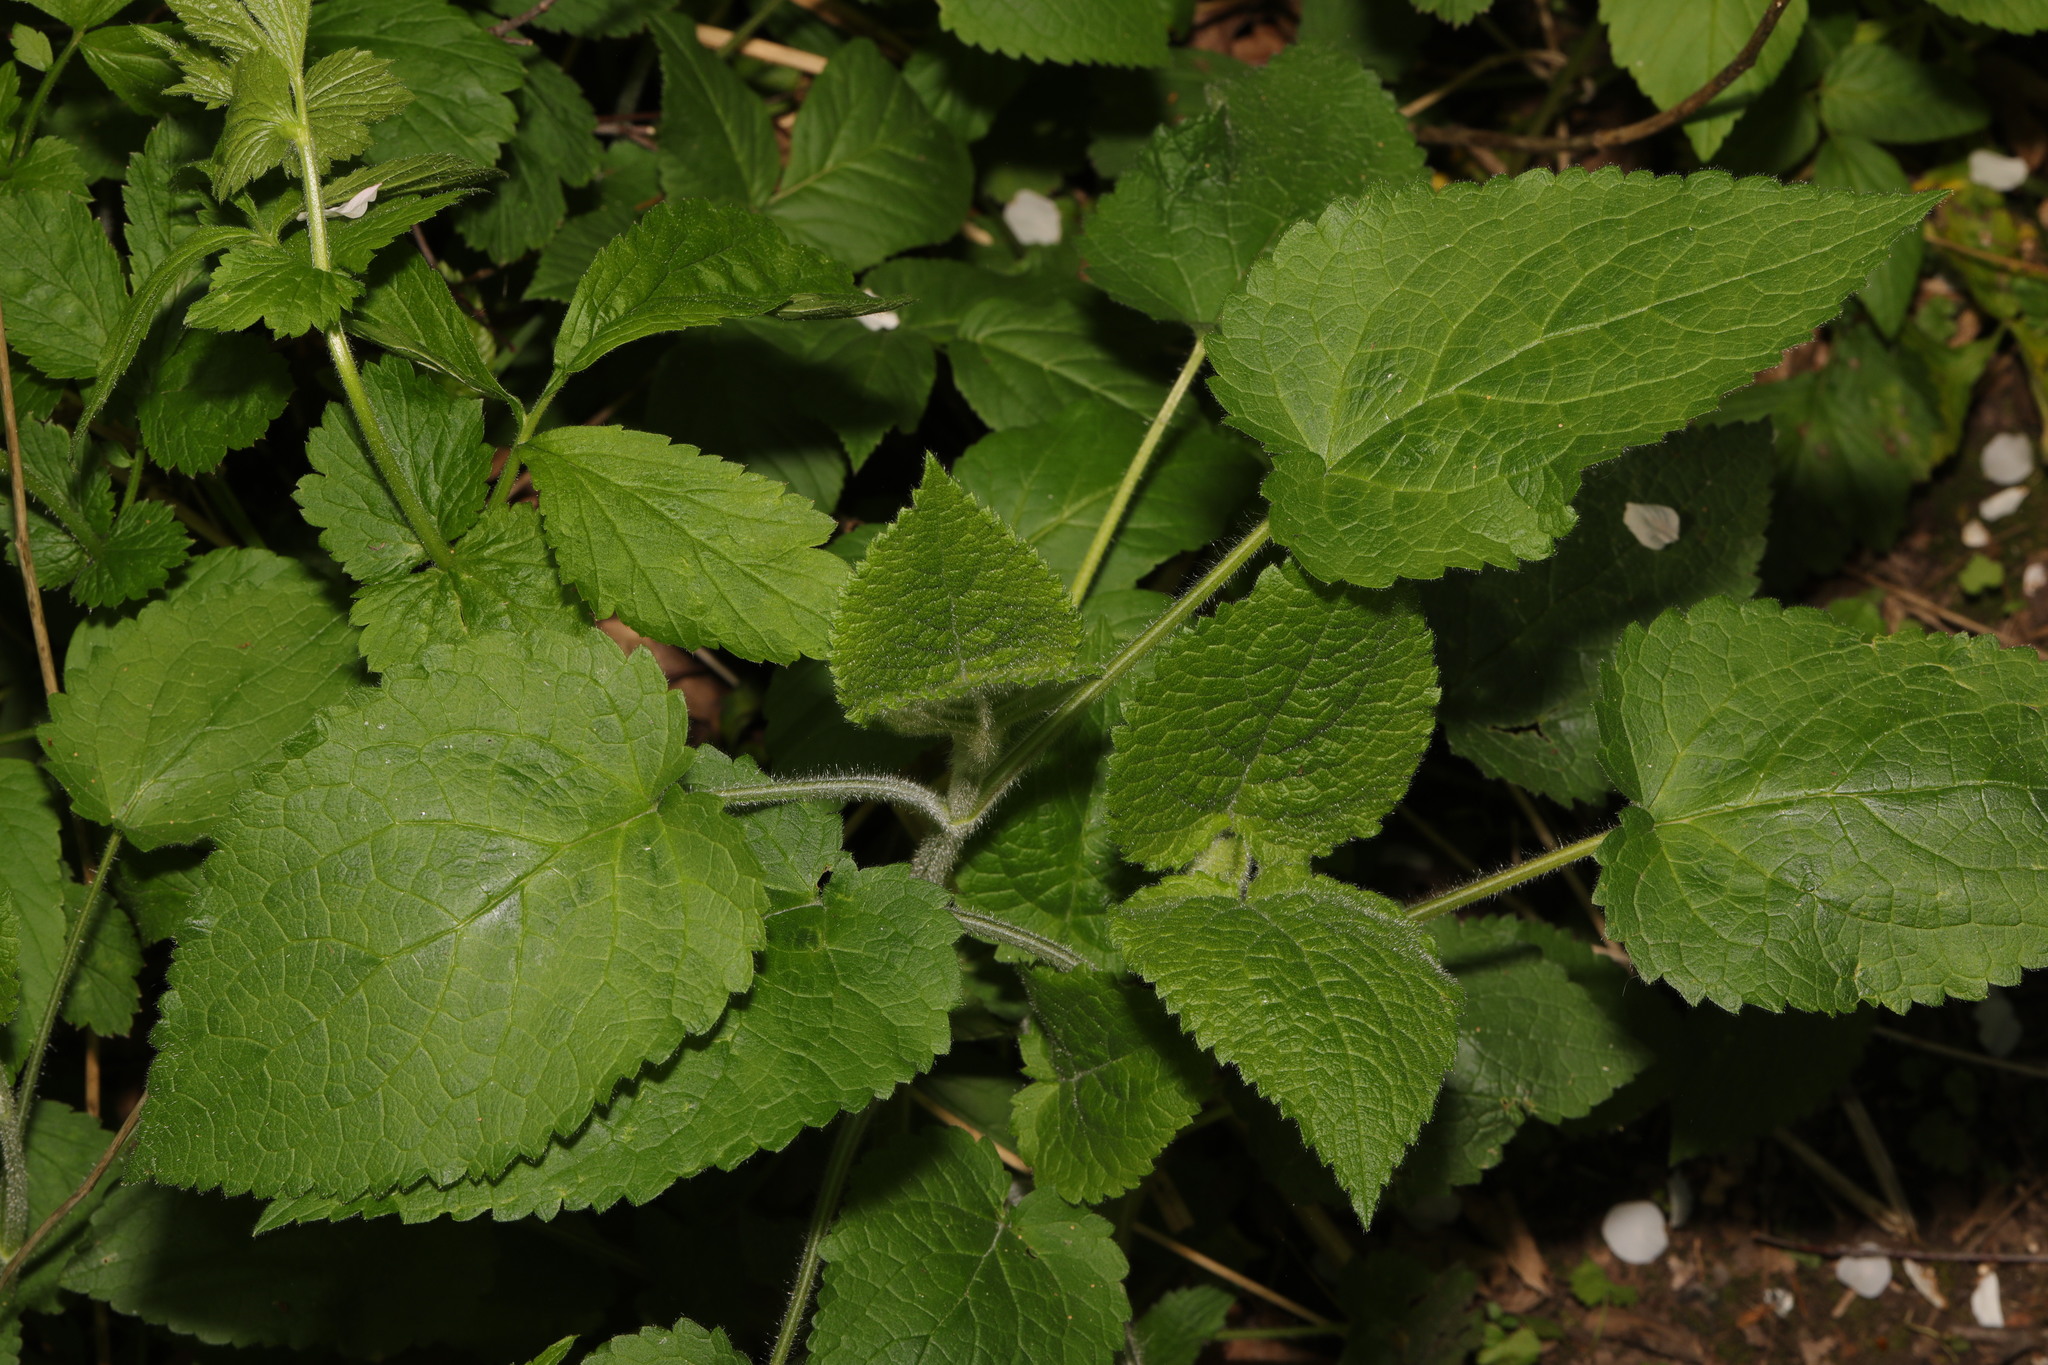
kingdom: Plantae
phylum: Tracheophyta
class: Magnoliopsida
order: Lamiales
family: Lamiaceae
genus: Stachys
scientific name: Stachys sylvatica
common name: Hedge woundwort
